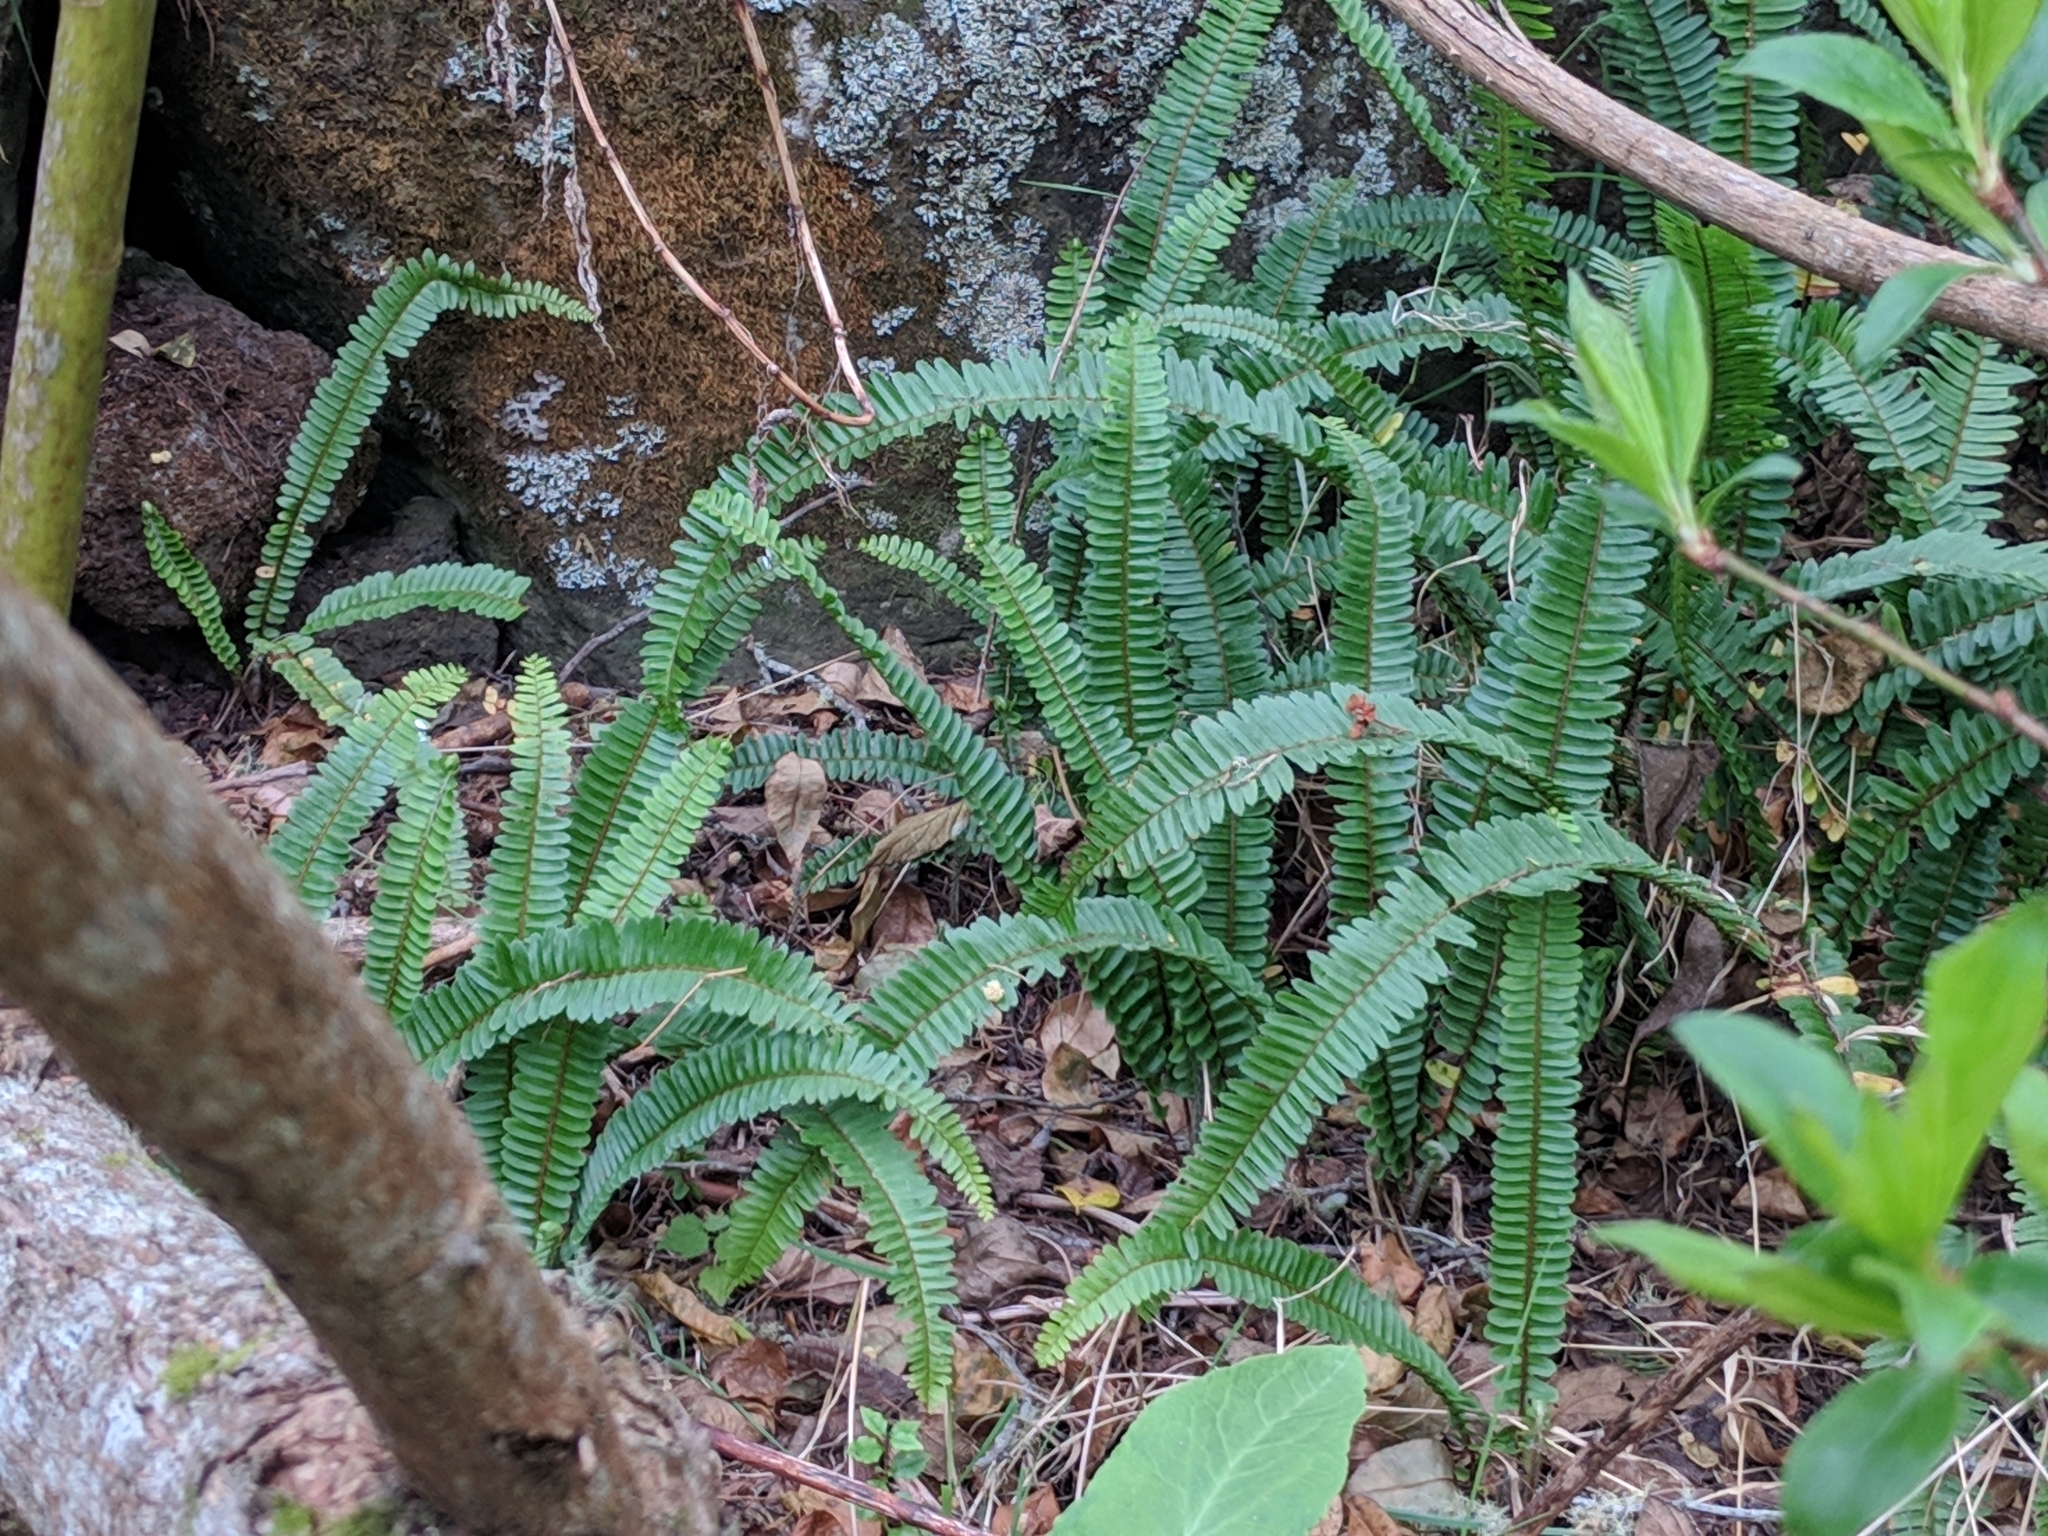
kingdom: Plantae
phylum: Tracheophyta
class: Polypodiopsida
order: Polypodiales
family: Nephrolepidaceae
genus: Nephrolepis
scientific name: Nephrolepis cordifolia
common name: Narrow swordfern
